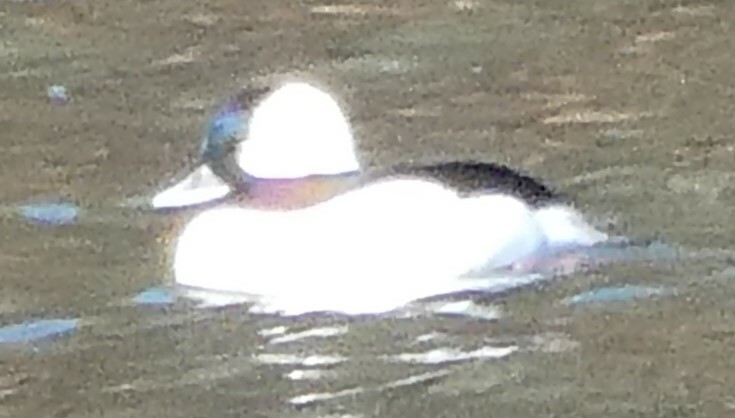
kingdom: Animalia
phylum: Chordata
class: Aves
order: Anseriformes
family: Anatidae
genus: Bucephala
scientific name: Bucephala albeola
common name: Bufflehead
